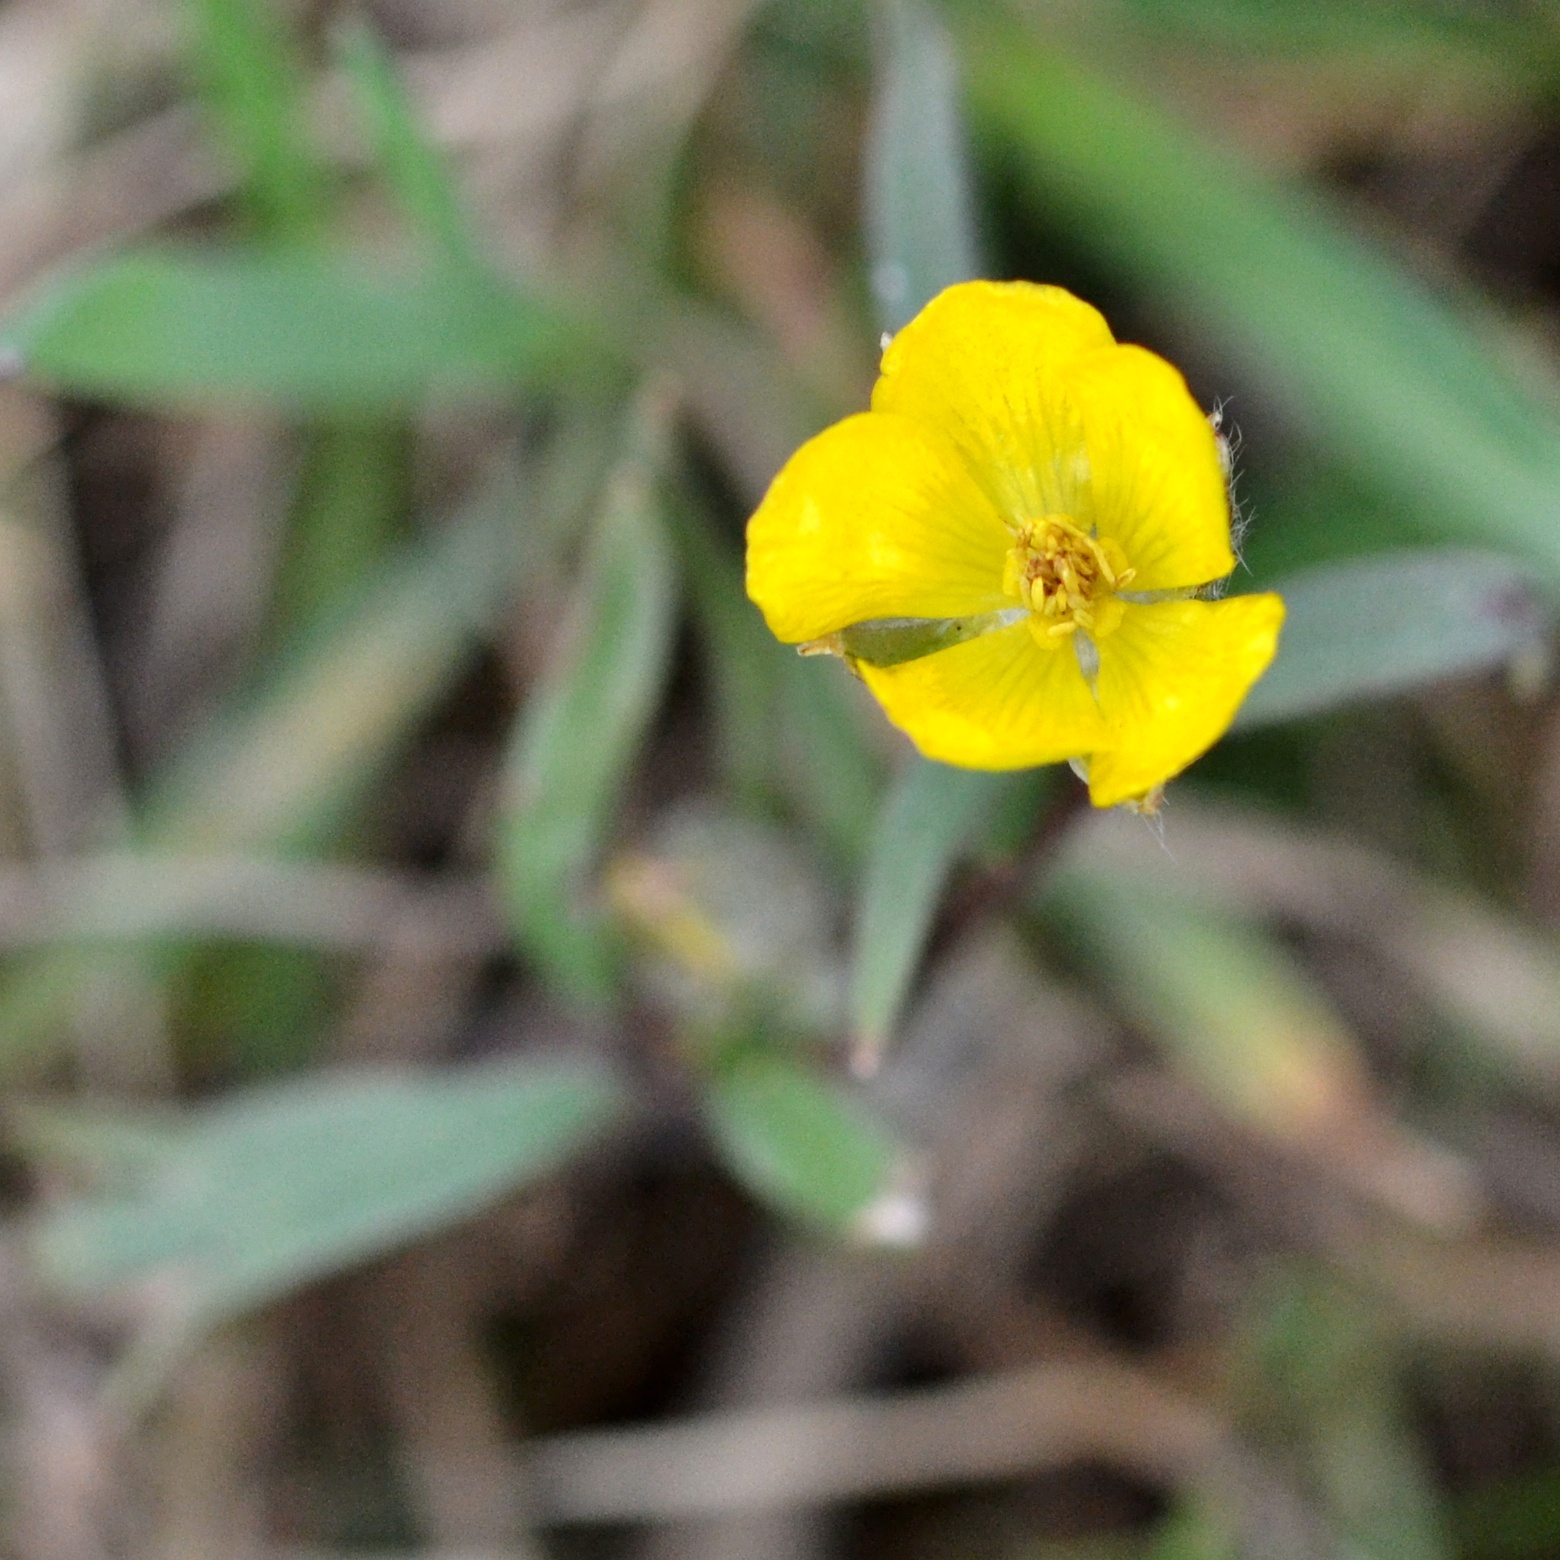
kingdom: Plantae
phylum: Tracheophyta
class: Magnoliopsida
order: Ranunculales
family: Ranunculaceae
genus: Ranunculus
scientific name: Ranunculus bulbosus
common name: Bulbous buttercup
